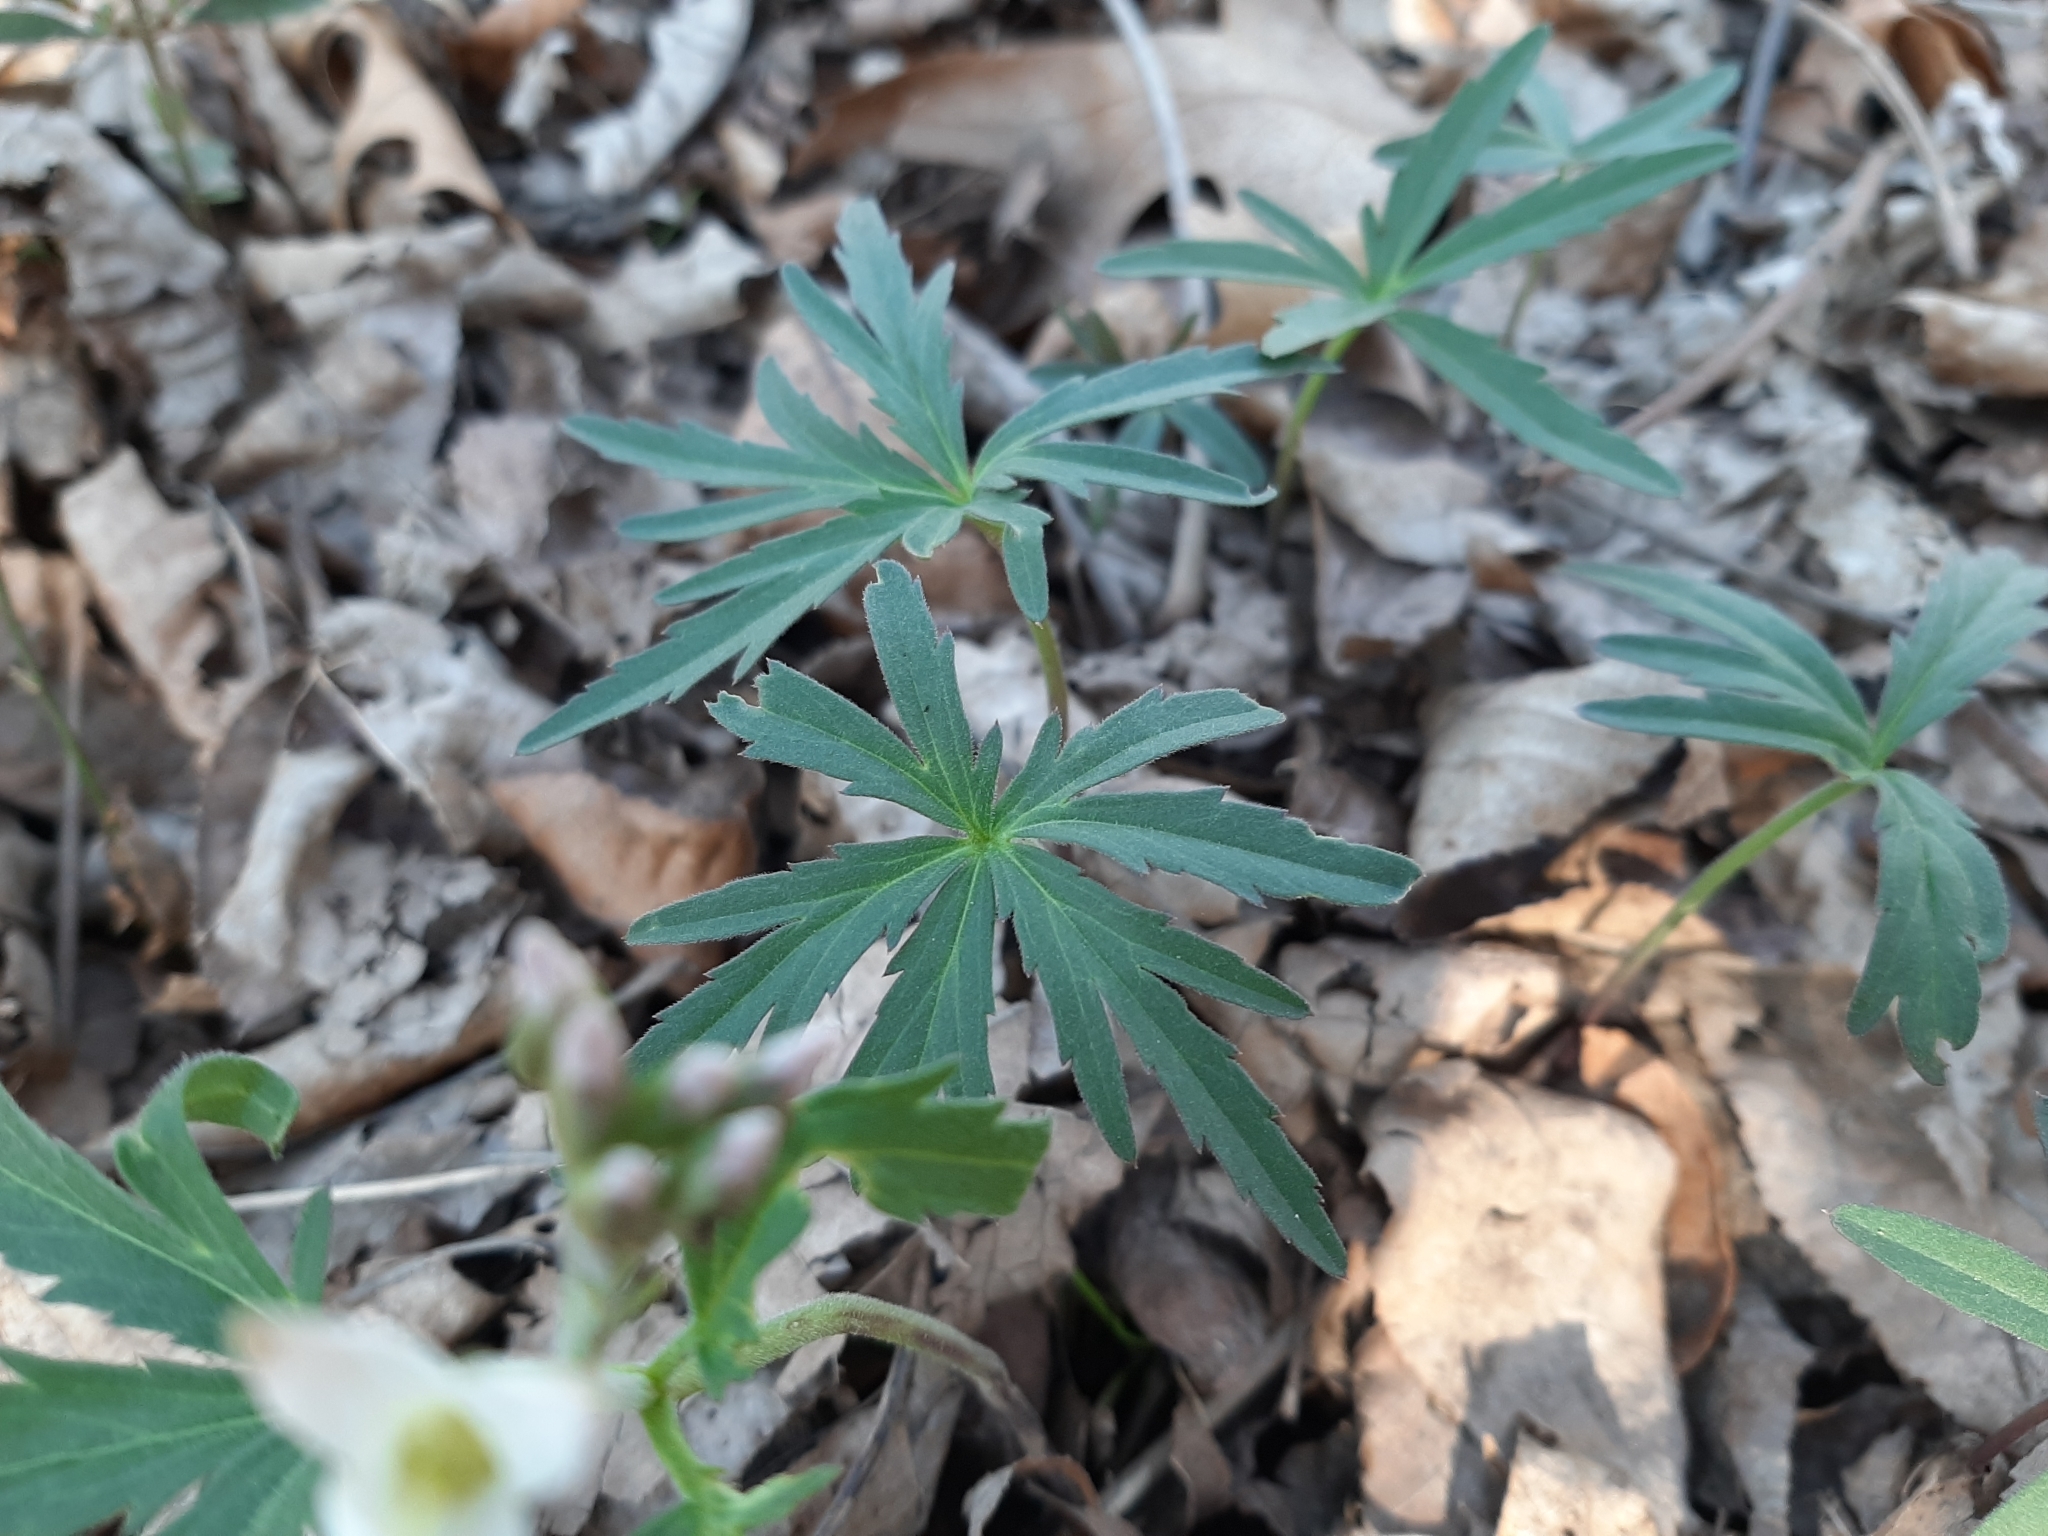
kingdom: Plantae
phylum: Tracheophyta
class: Magnoliopsida
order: Brassicales
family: Brassicaceae
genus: Cardamine
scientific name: Cardamine concatenata
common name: Cut-leaf toothcup
